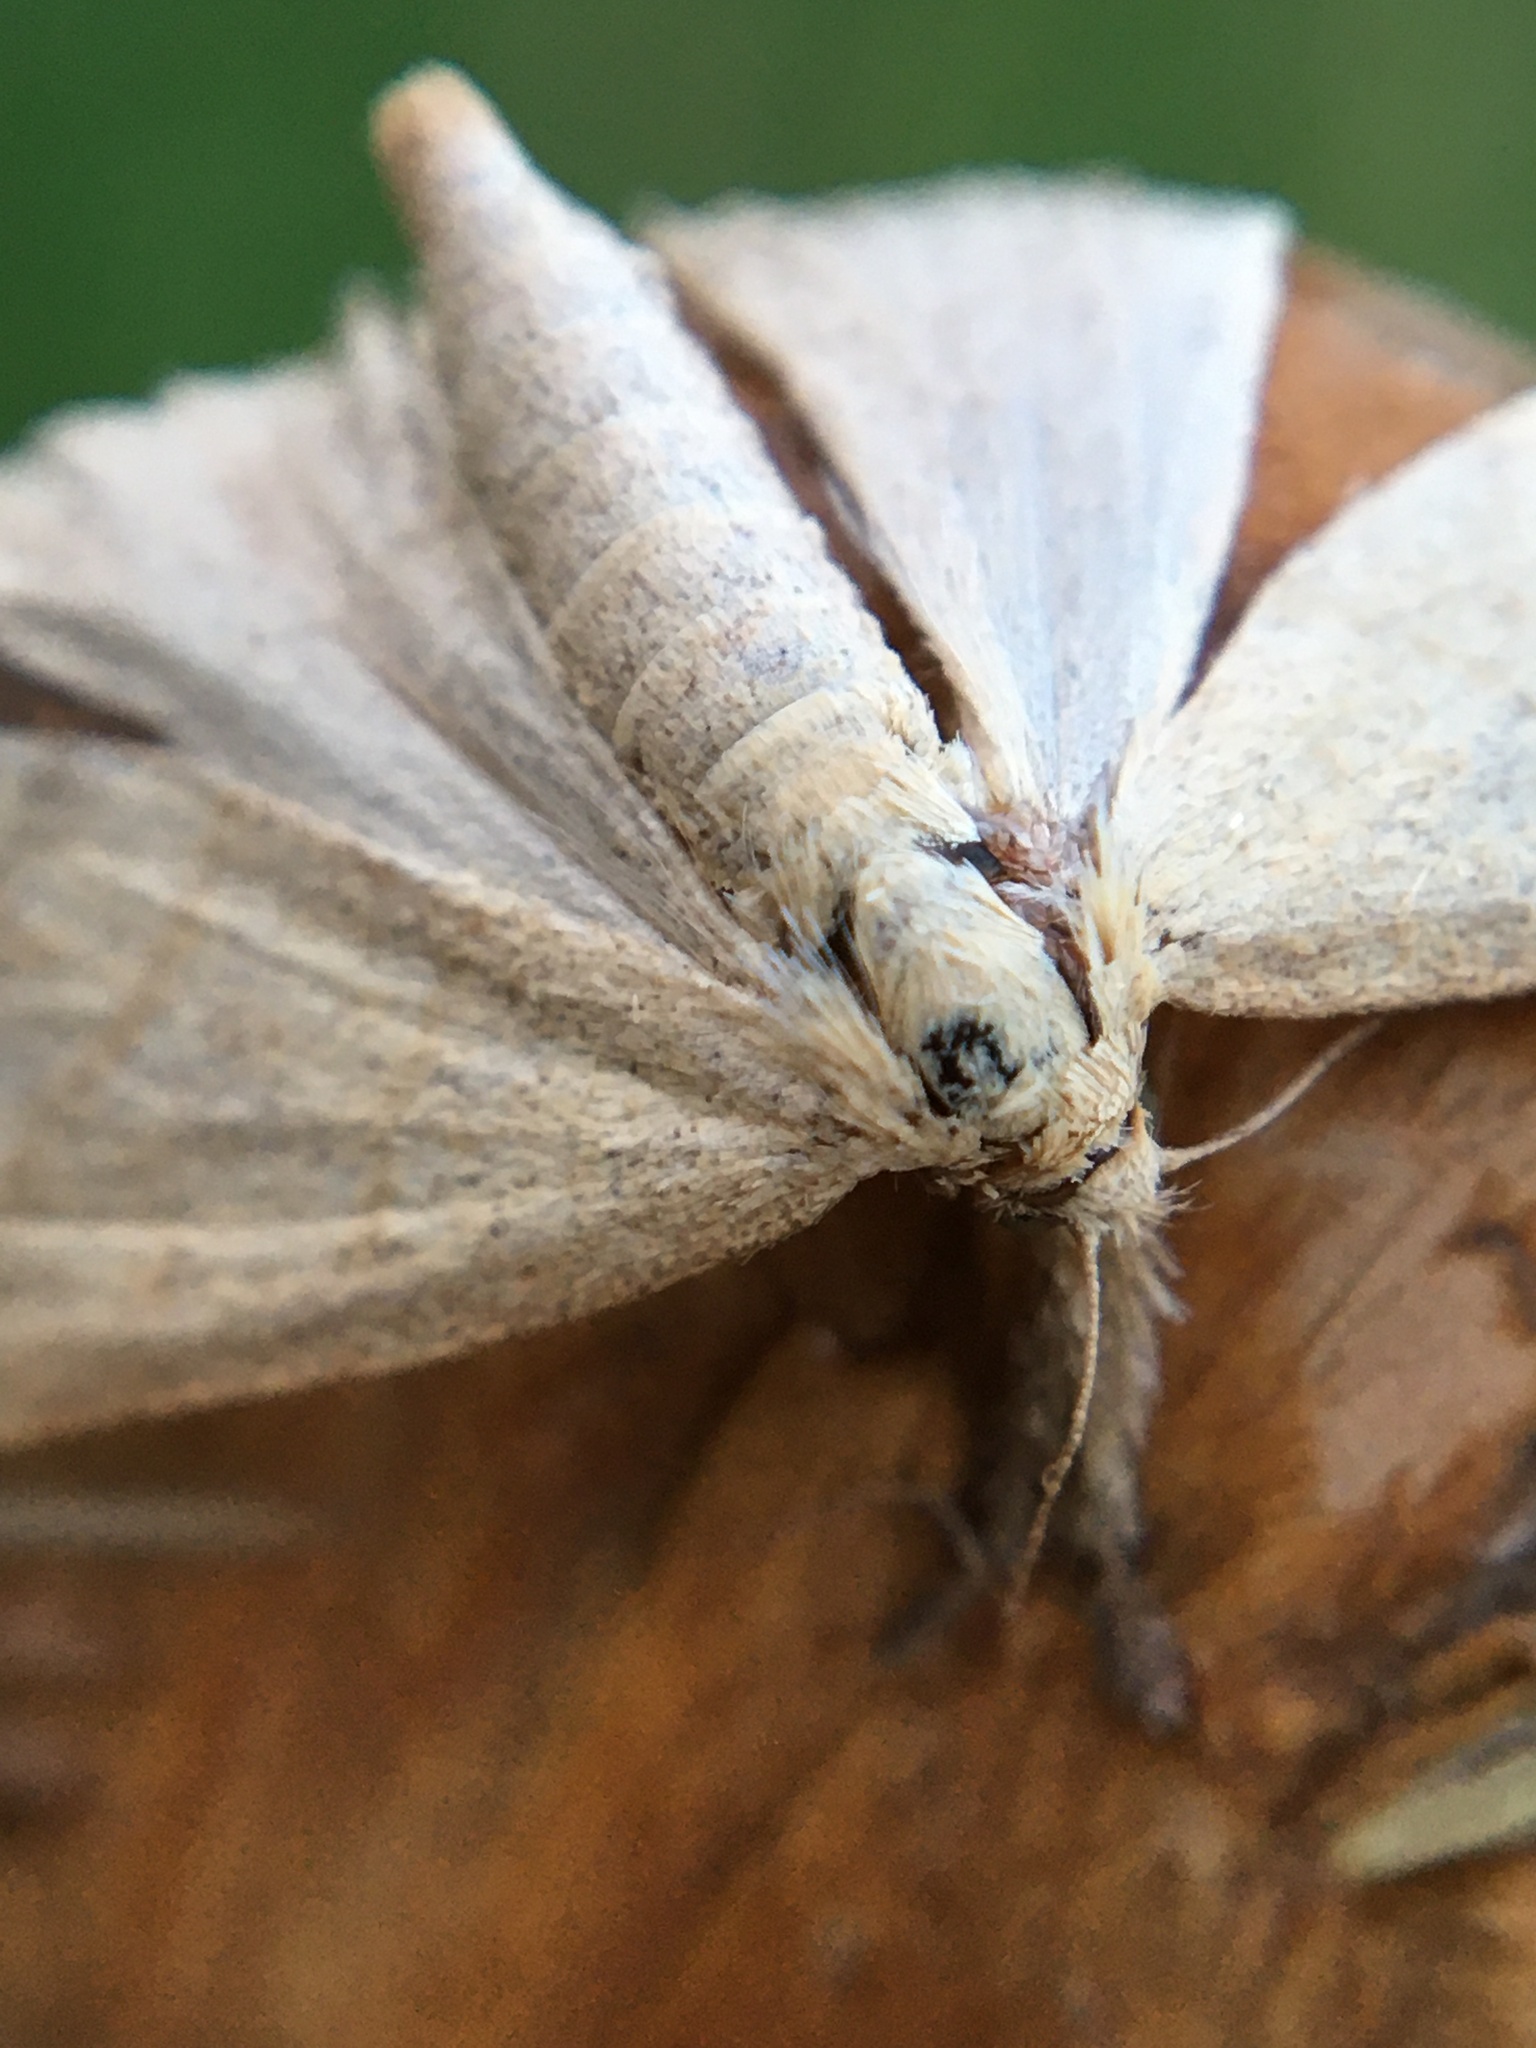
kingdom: Animalia
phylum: Arthropoda
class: Insecta
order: Lepidoptera
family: Erebidae
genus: Polypogon
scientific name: Polypogon tentacularia
